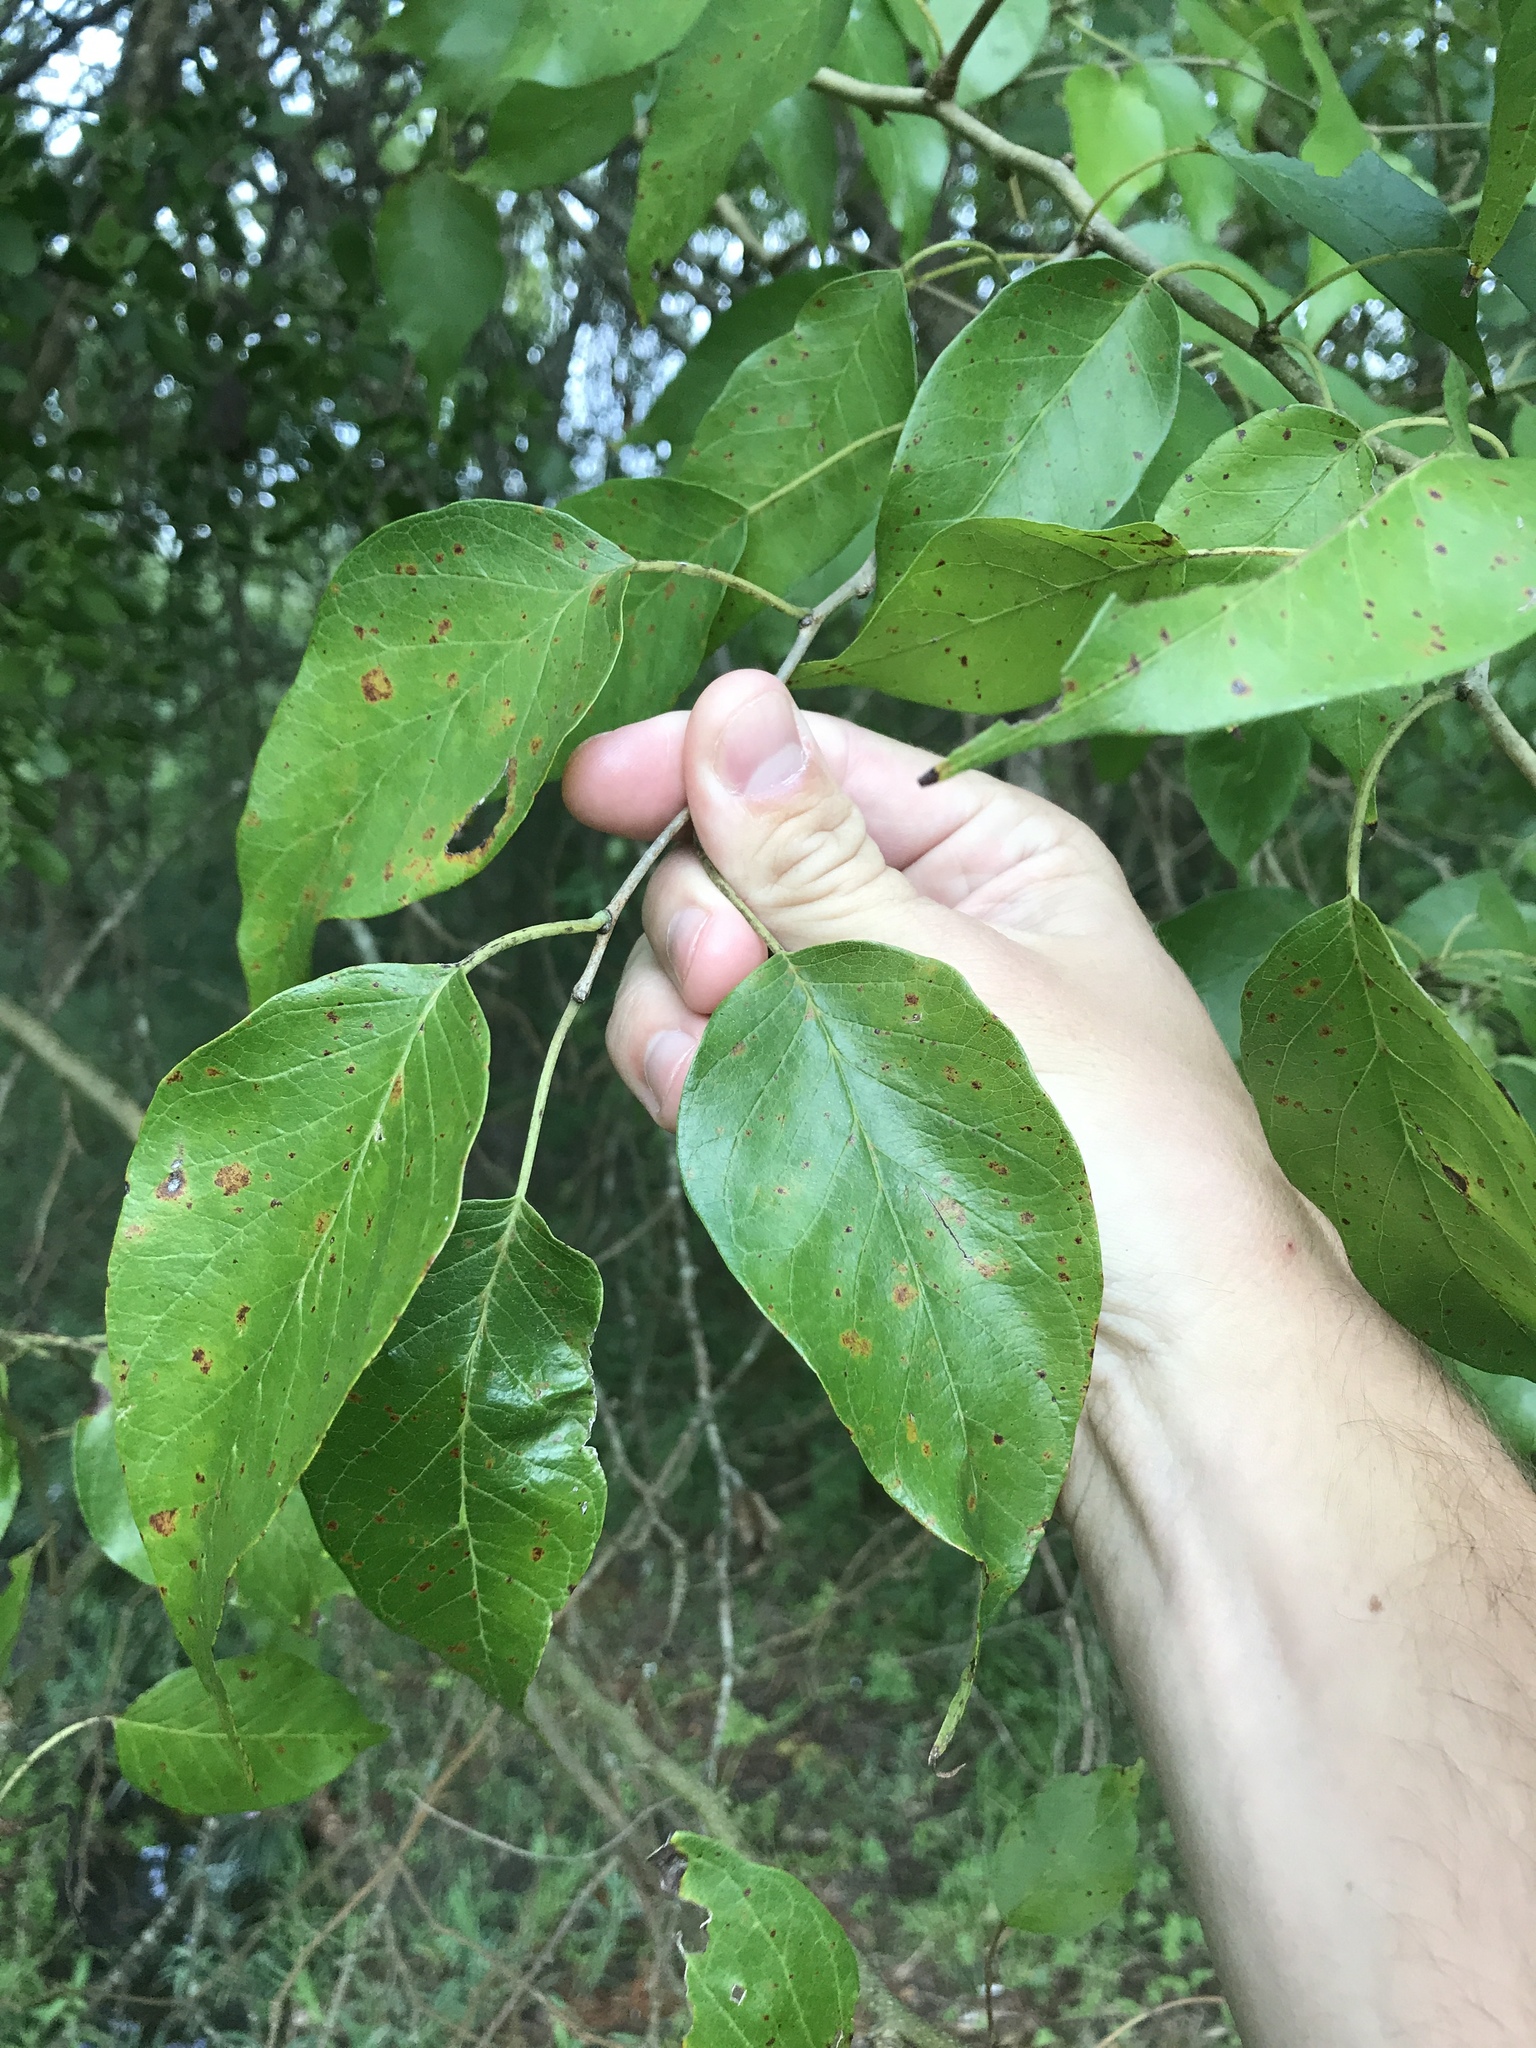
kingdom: Plantae
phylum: Tracheophyta
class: Magnoliopsida
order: Rosales
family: Moraceae
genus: Maclura
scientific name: Maclura pomifera
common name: Osage-orange
